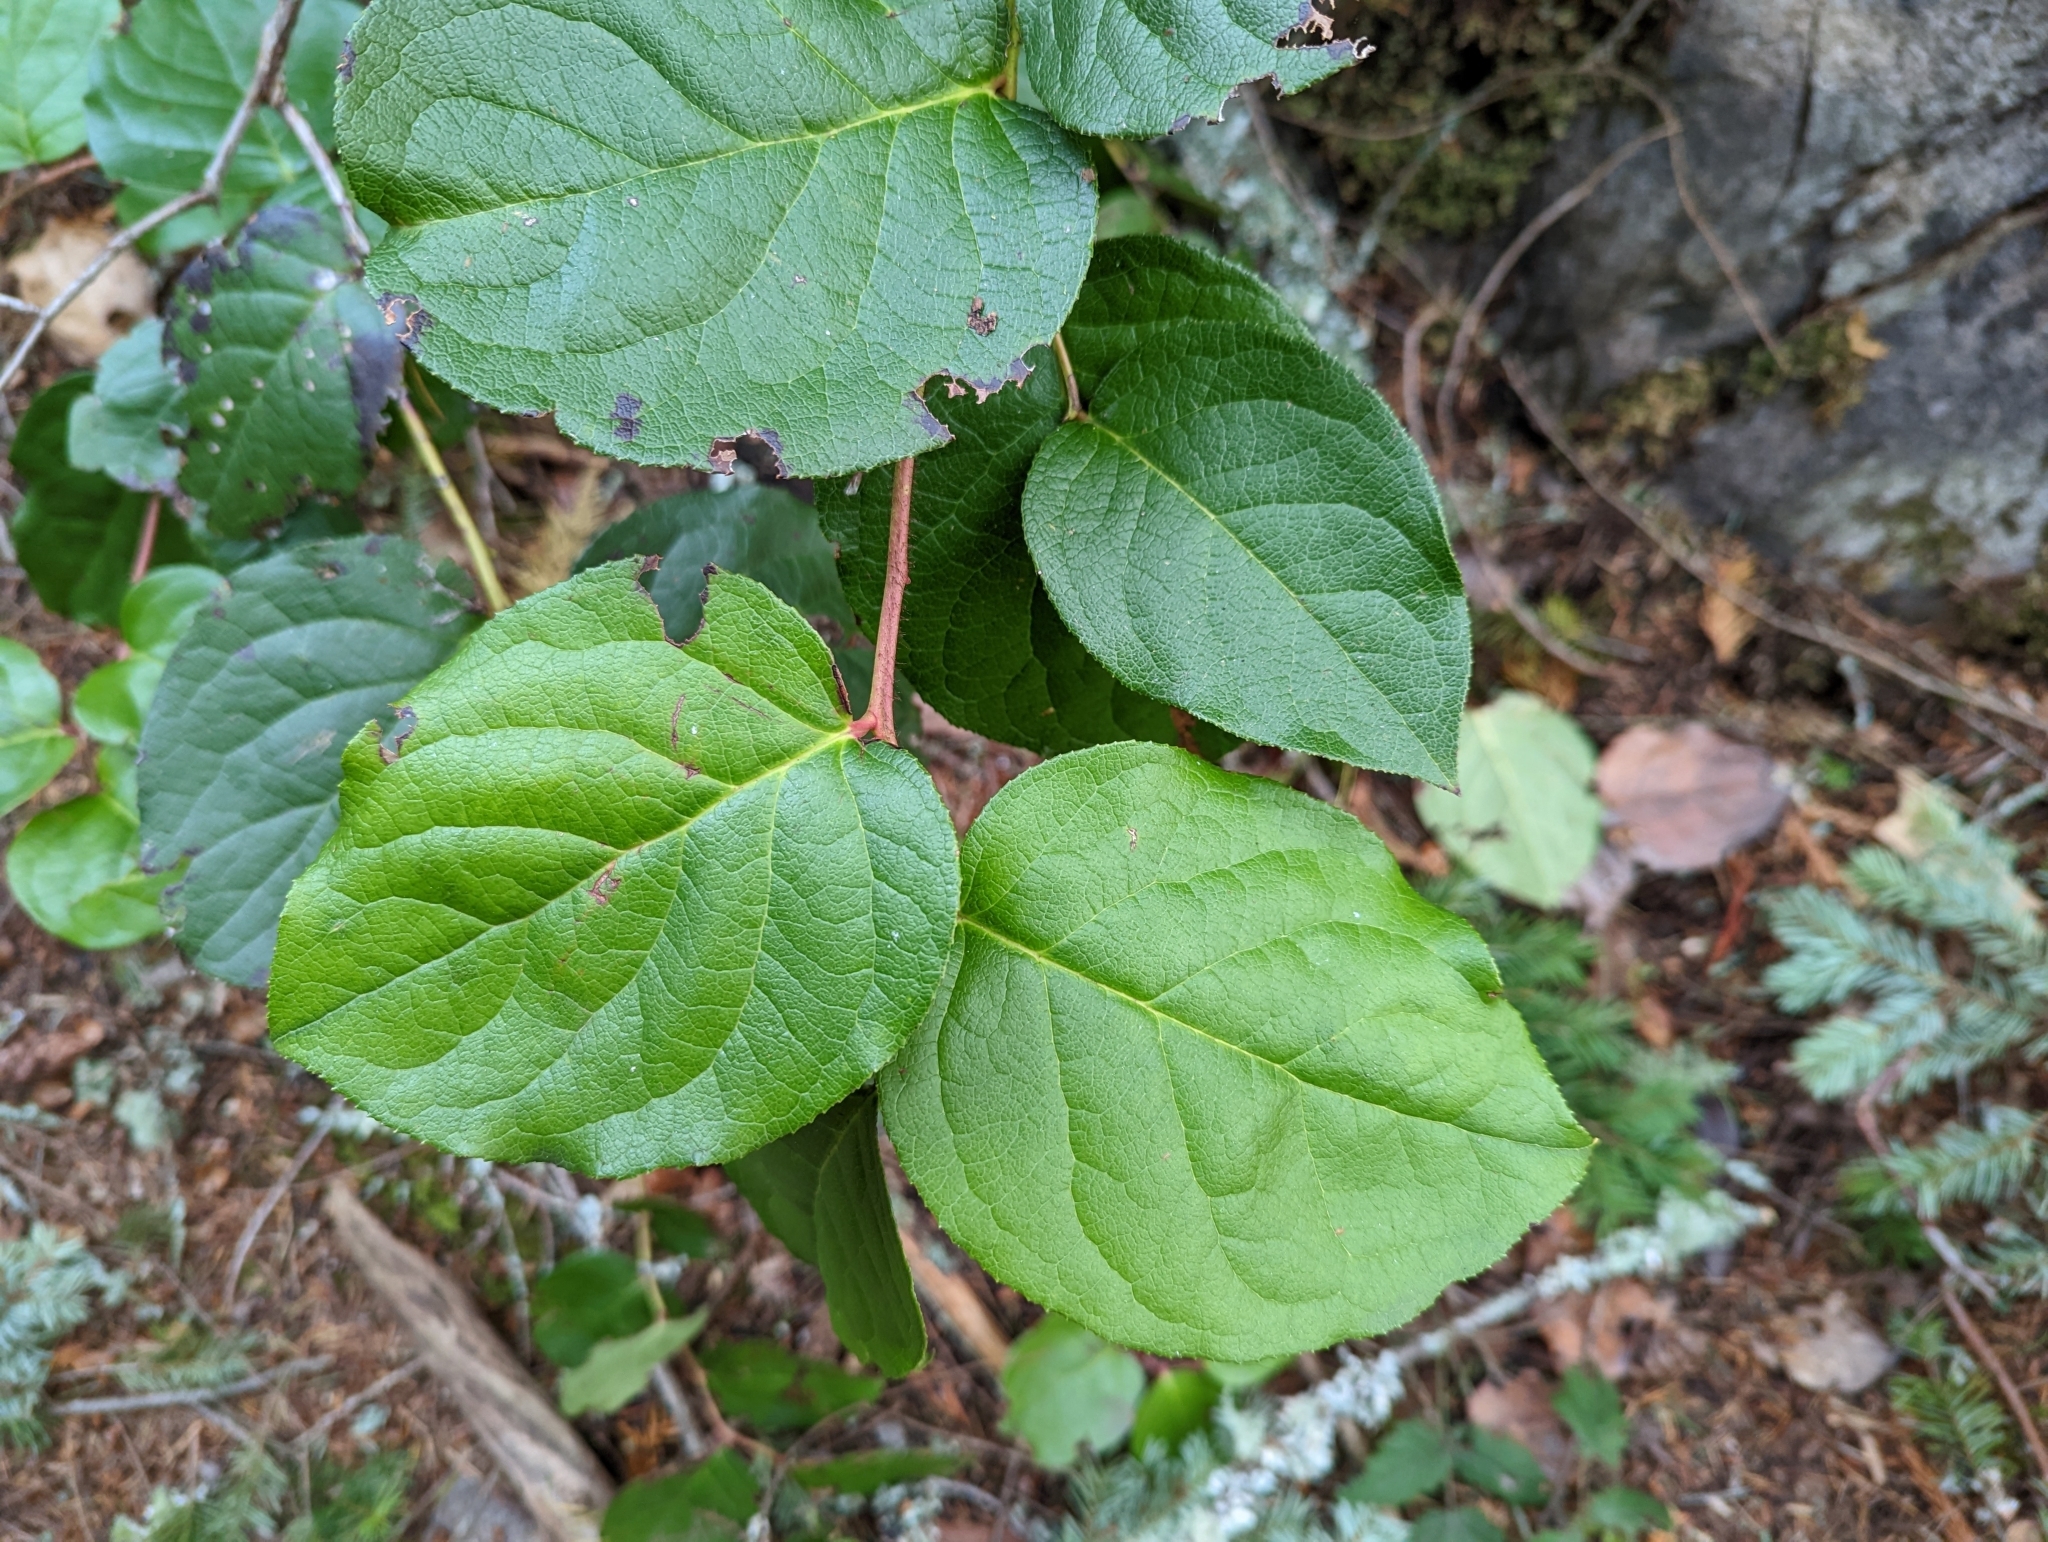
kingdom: Plantae
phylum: Tracheophyta
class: Magnoliopsida
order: Ericales
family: Ericaceae
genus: Gaultheria
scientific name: Gaultheria shallon
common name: Shallon
